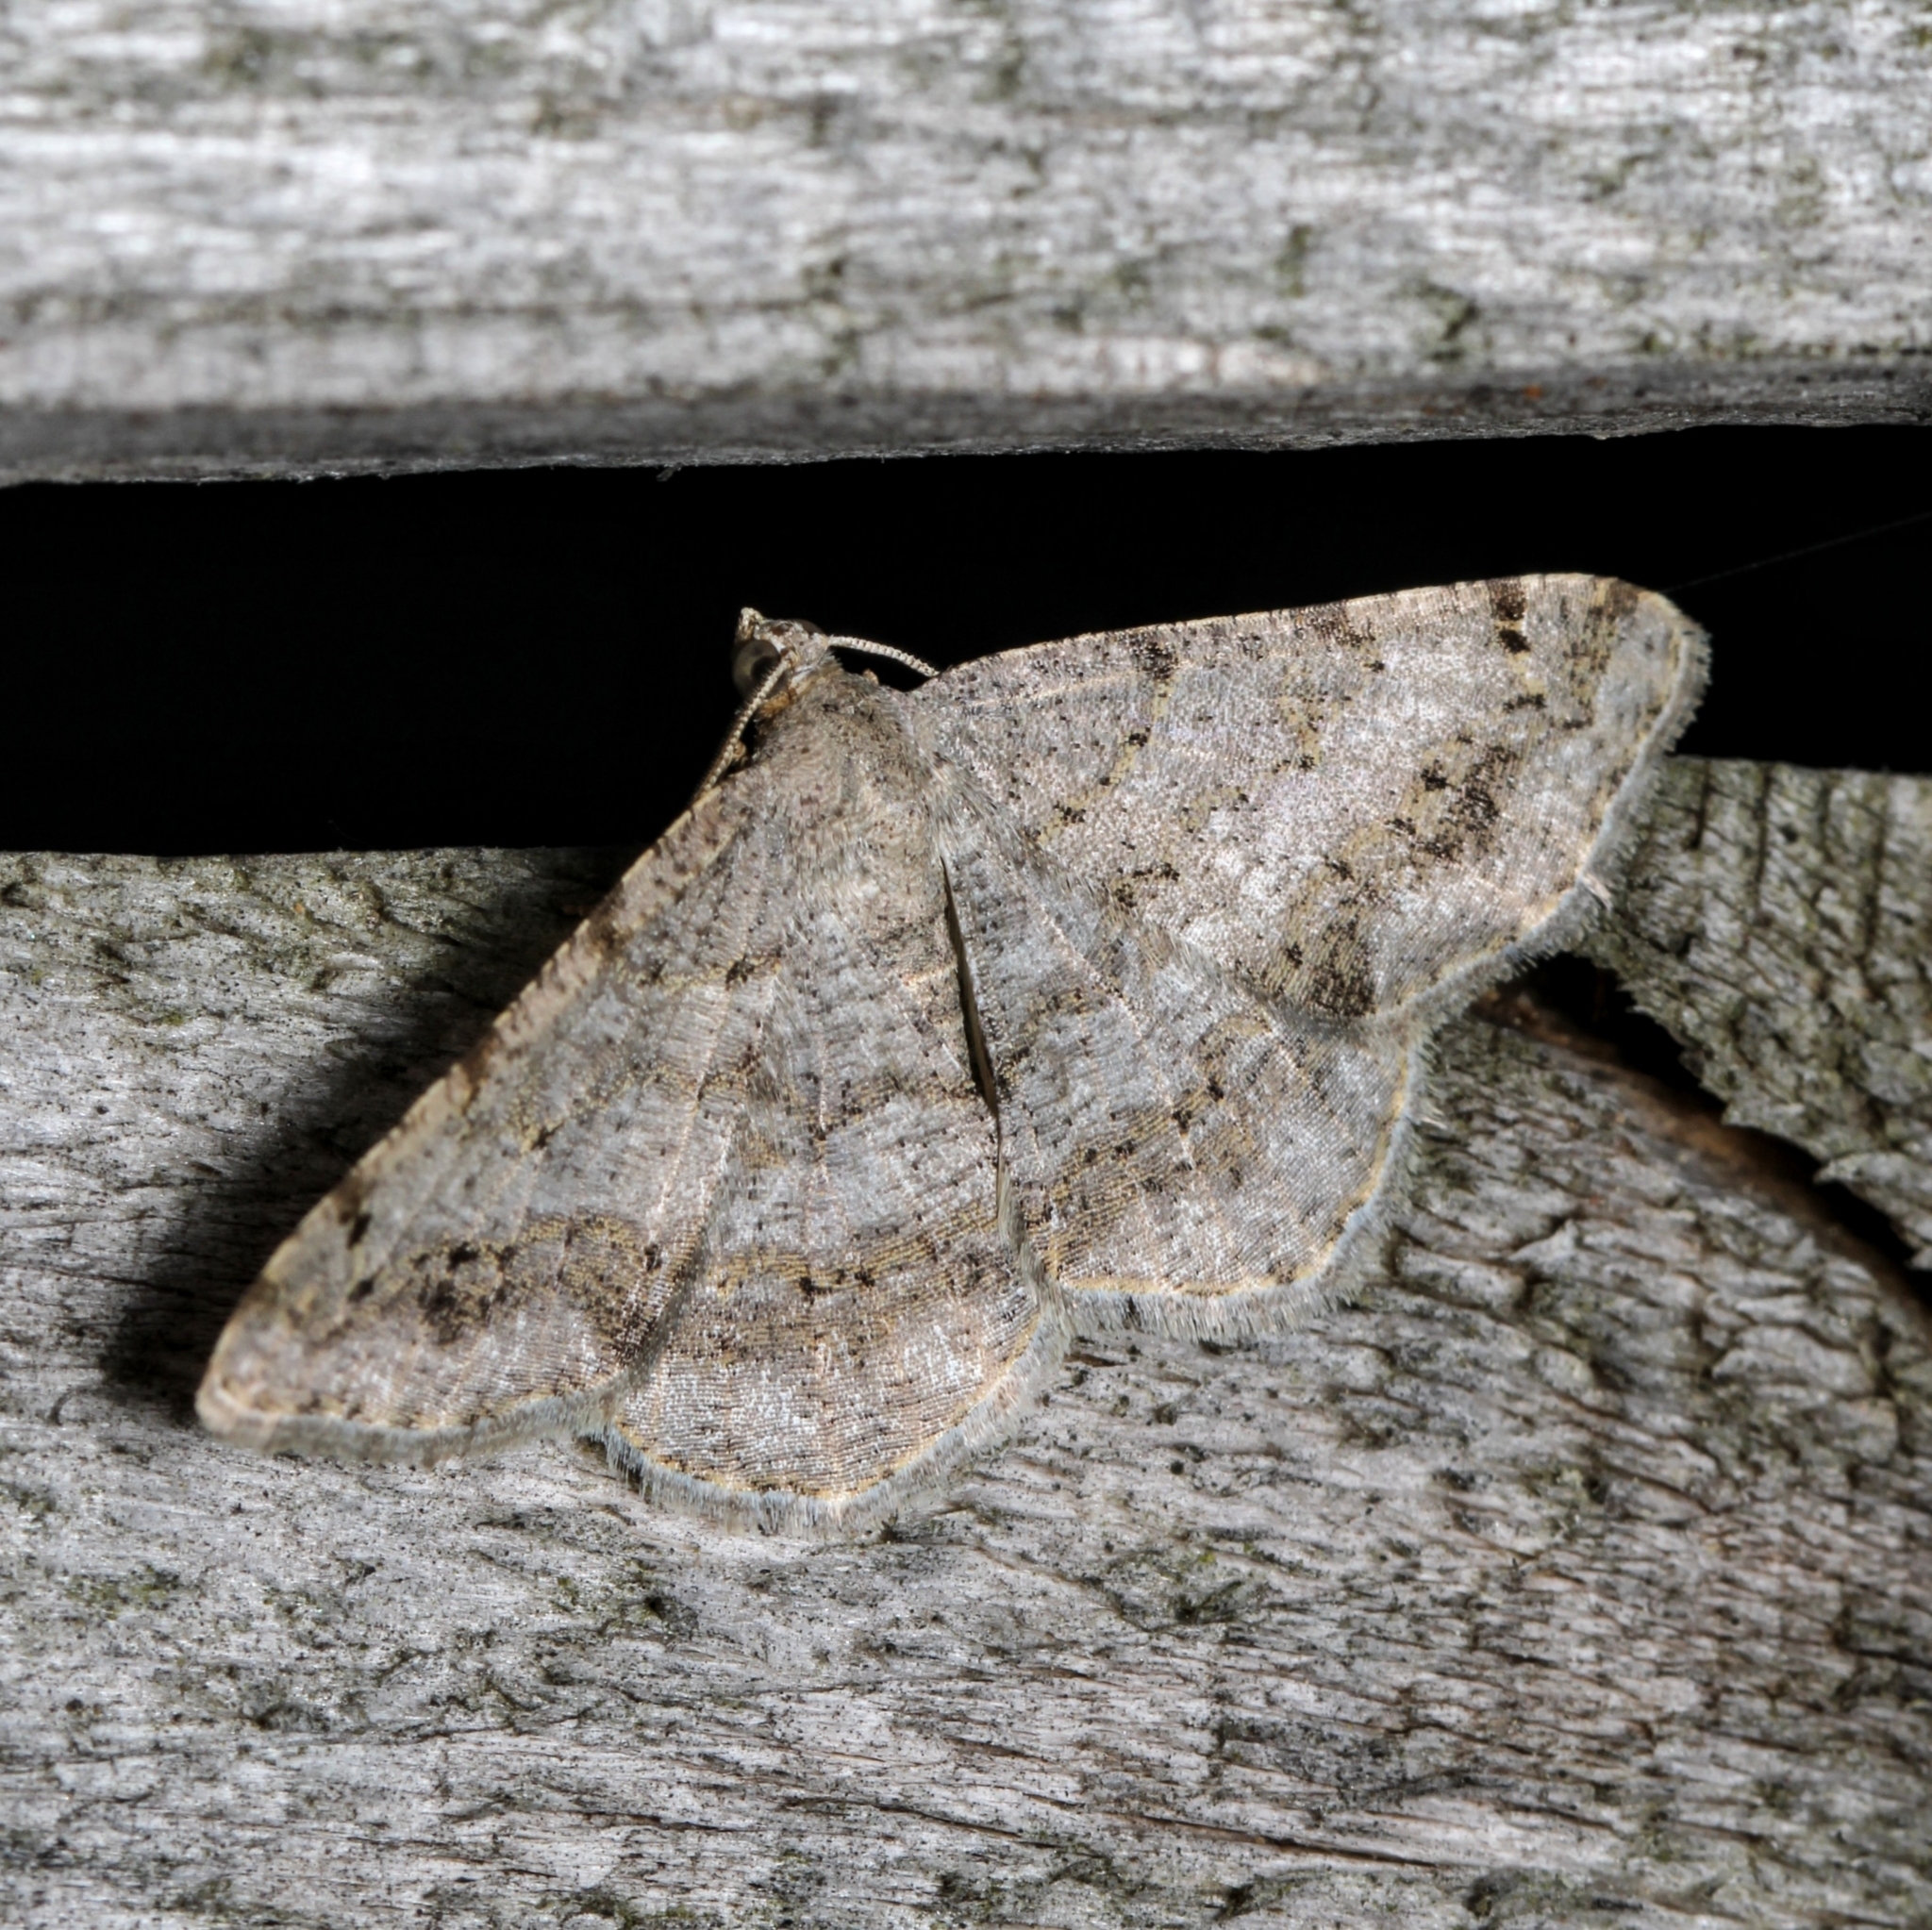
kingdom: Animalia
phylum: Arthropoda
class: Insecta
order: Lepidoptera
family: Geometridae
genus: Digrammia
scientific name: Digrammia ocellinata
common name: Faint-spotted angle
